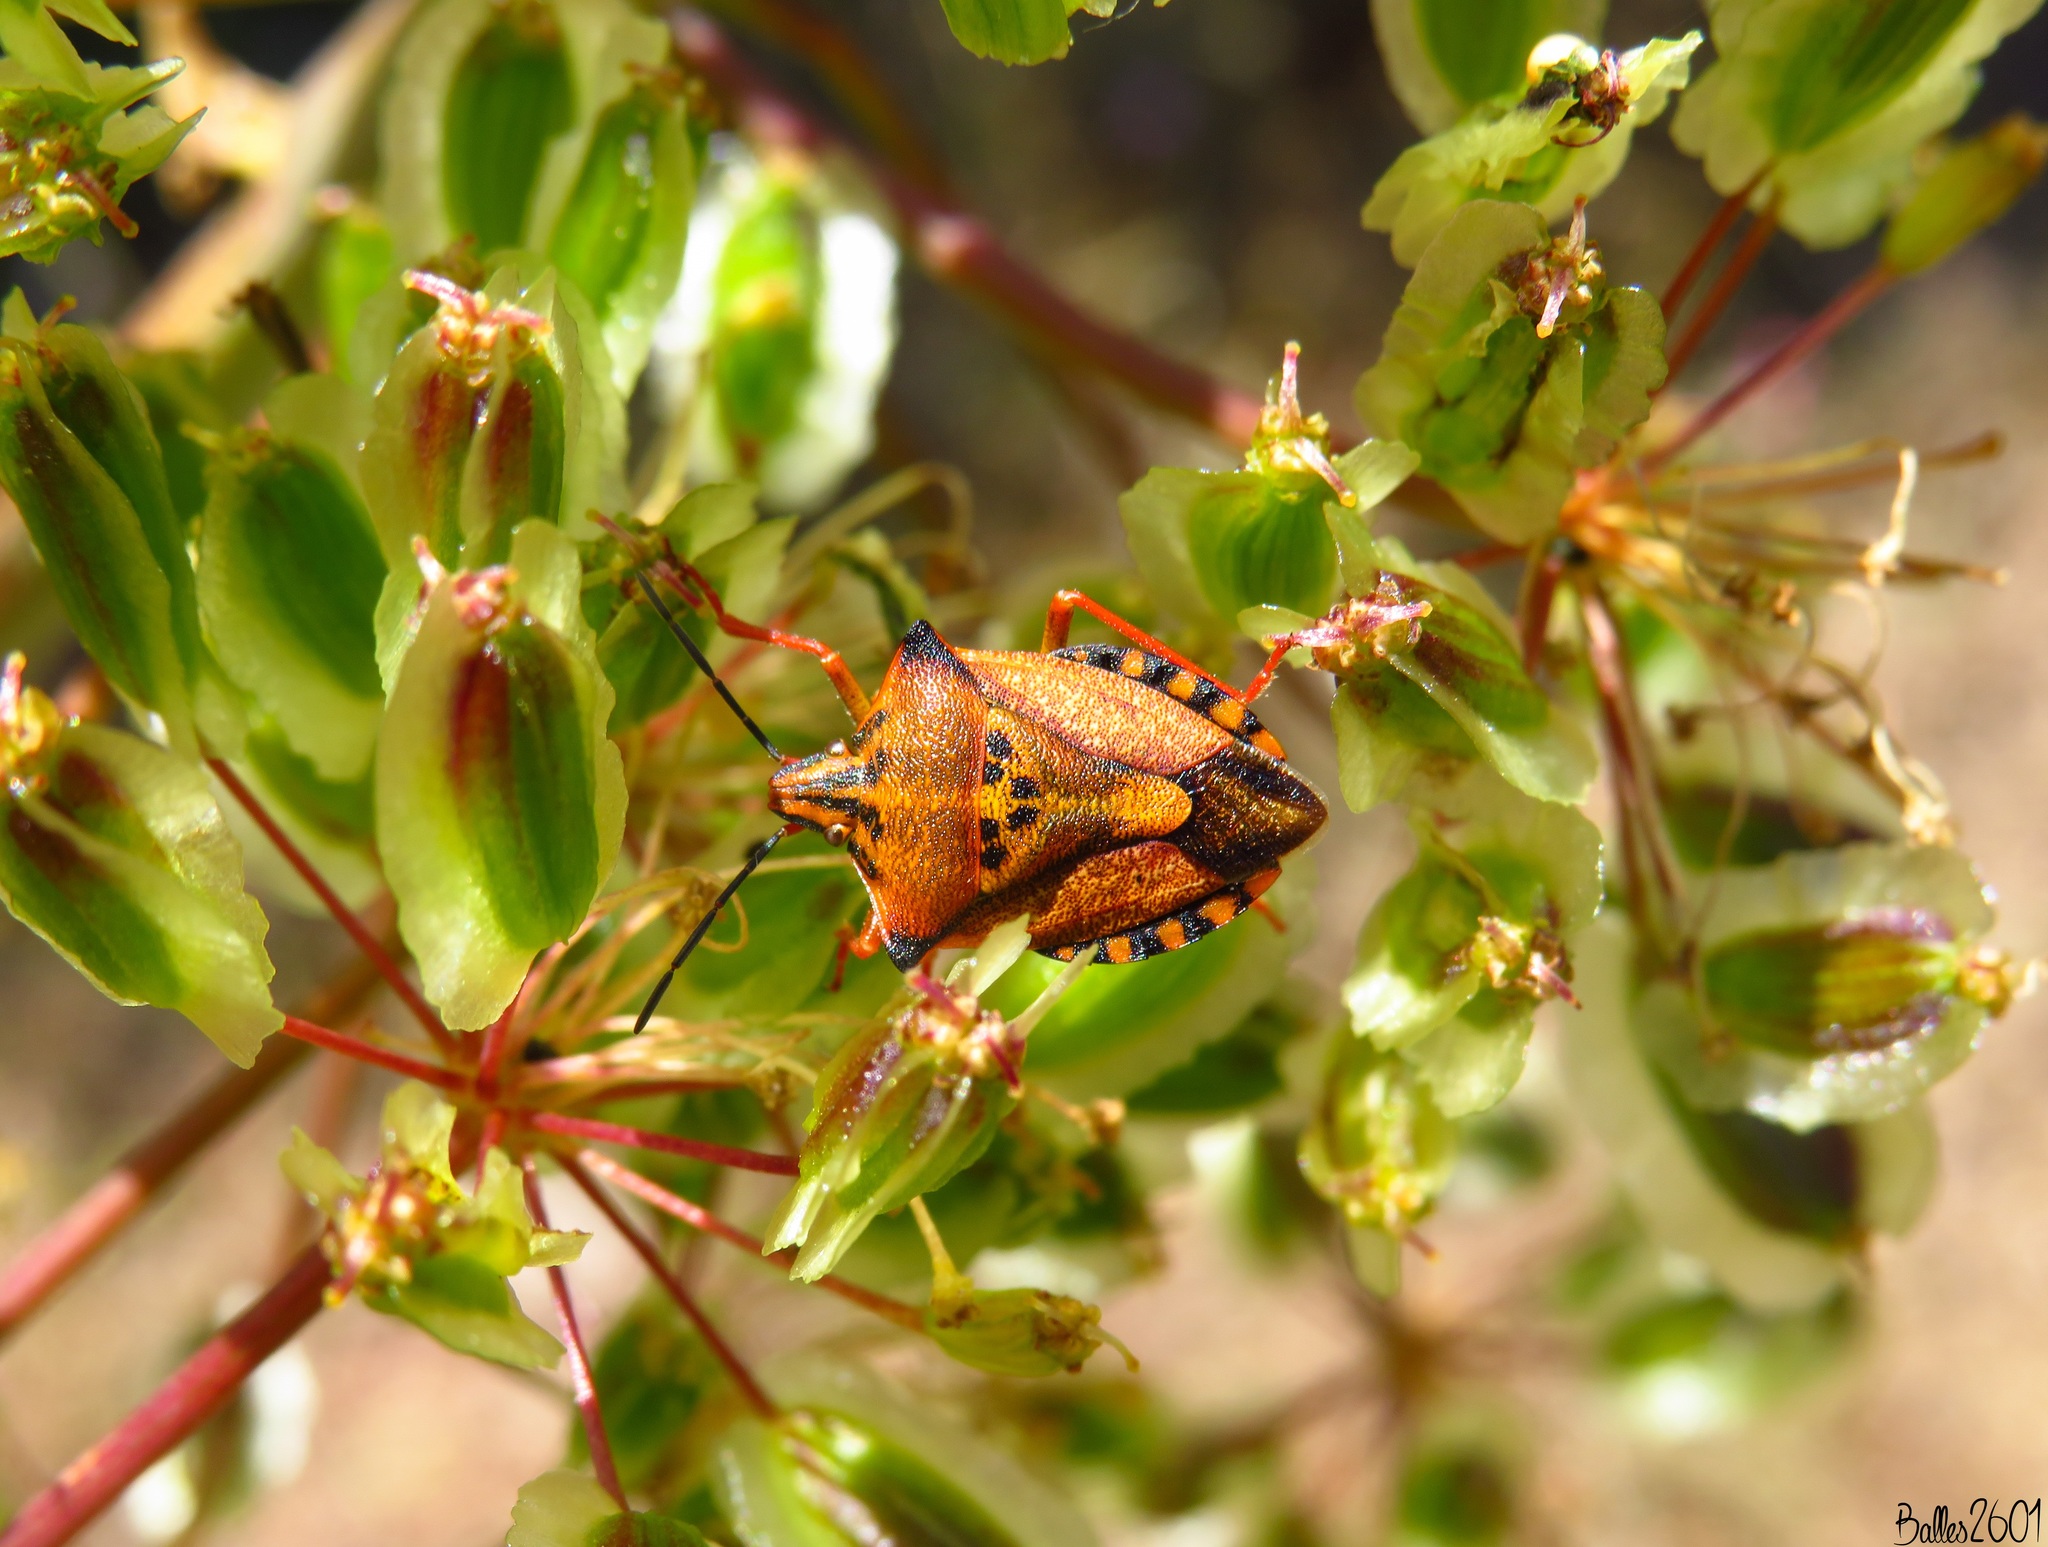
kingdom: Animalia
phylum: Arthropoda
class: Insecta
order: Hemiptera
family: Pentatomidae
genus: Carpocoris
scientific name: Carpocoris mediterraneus
